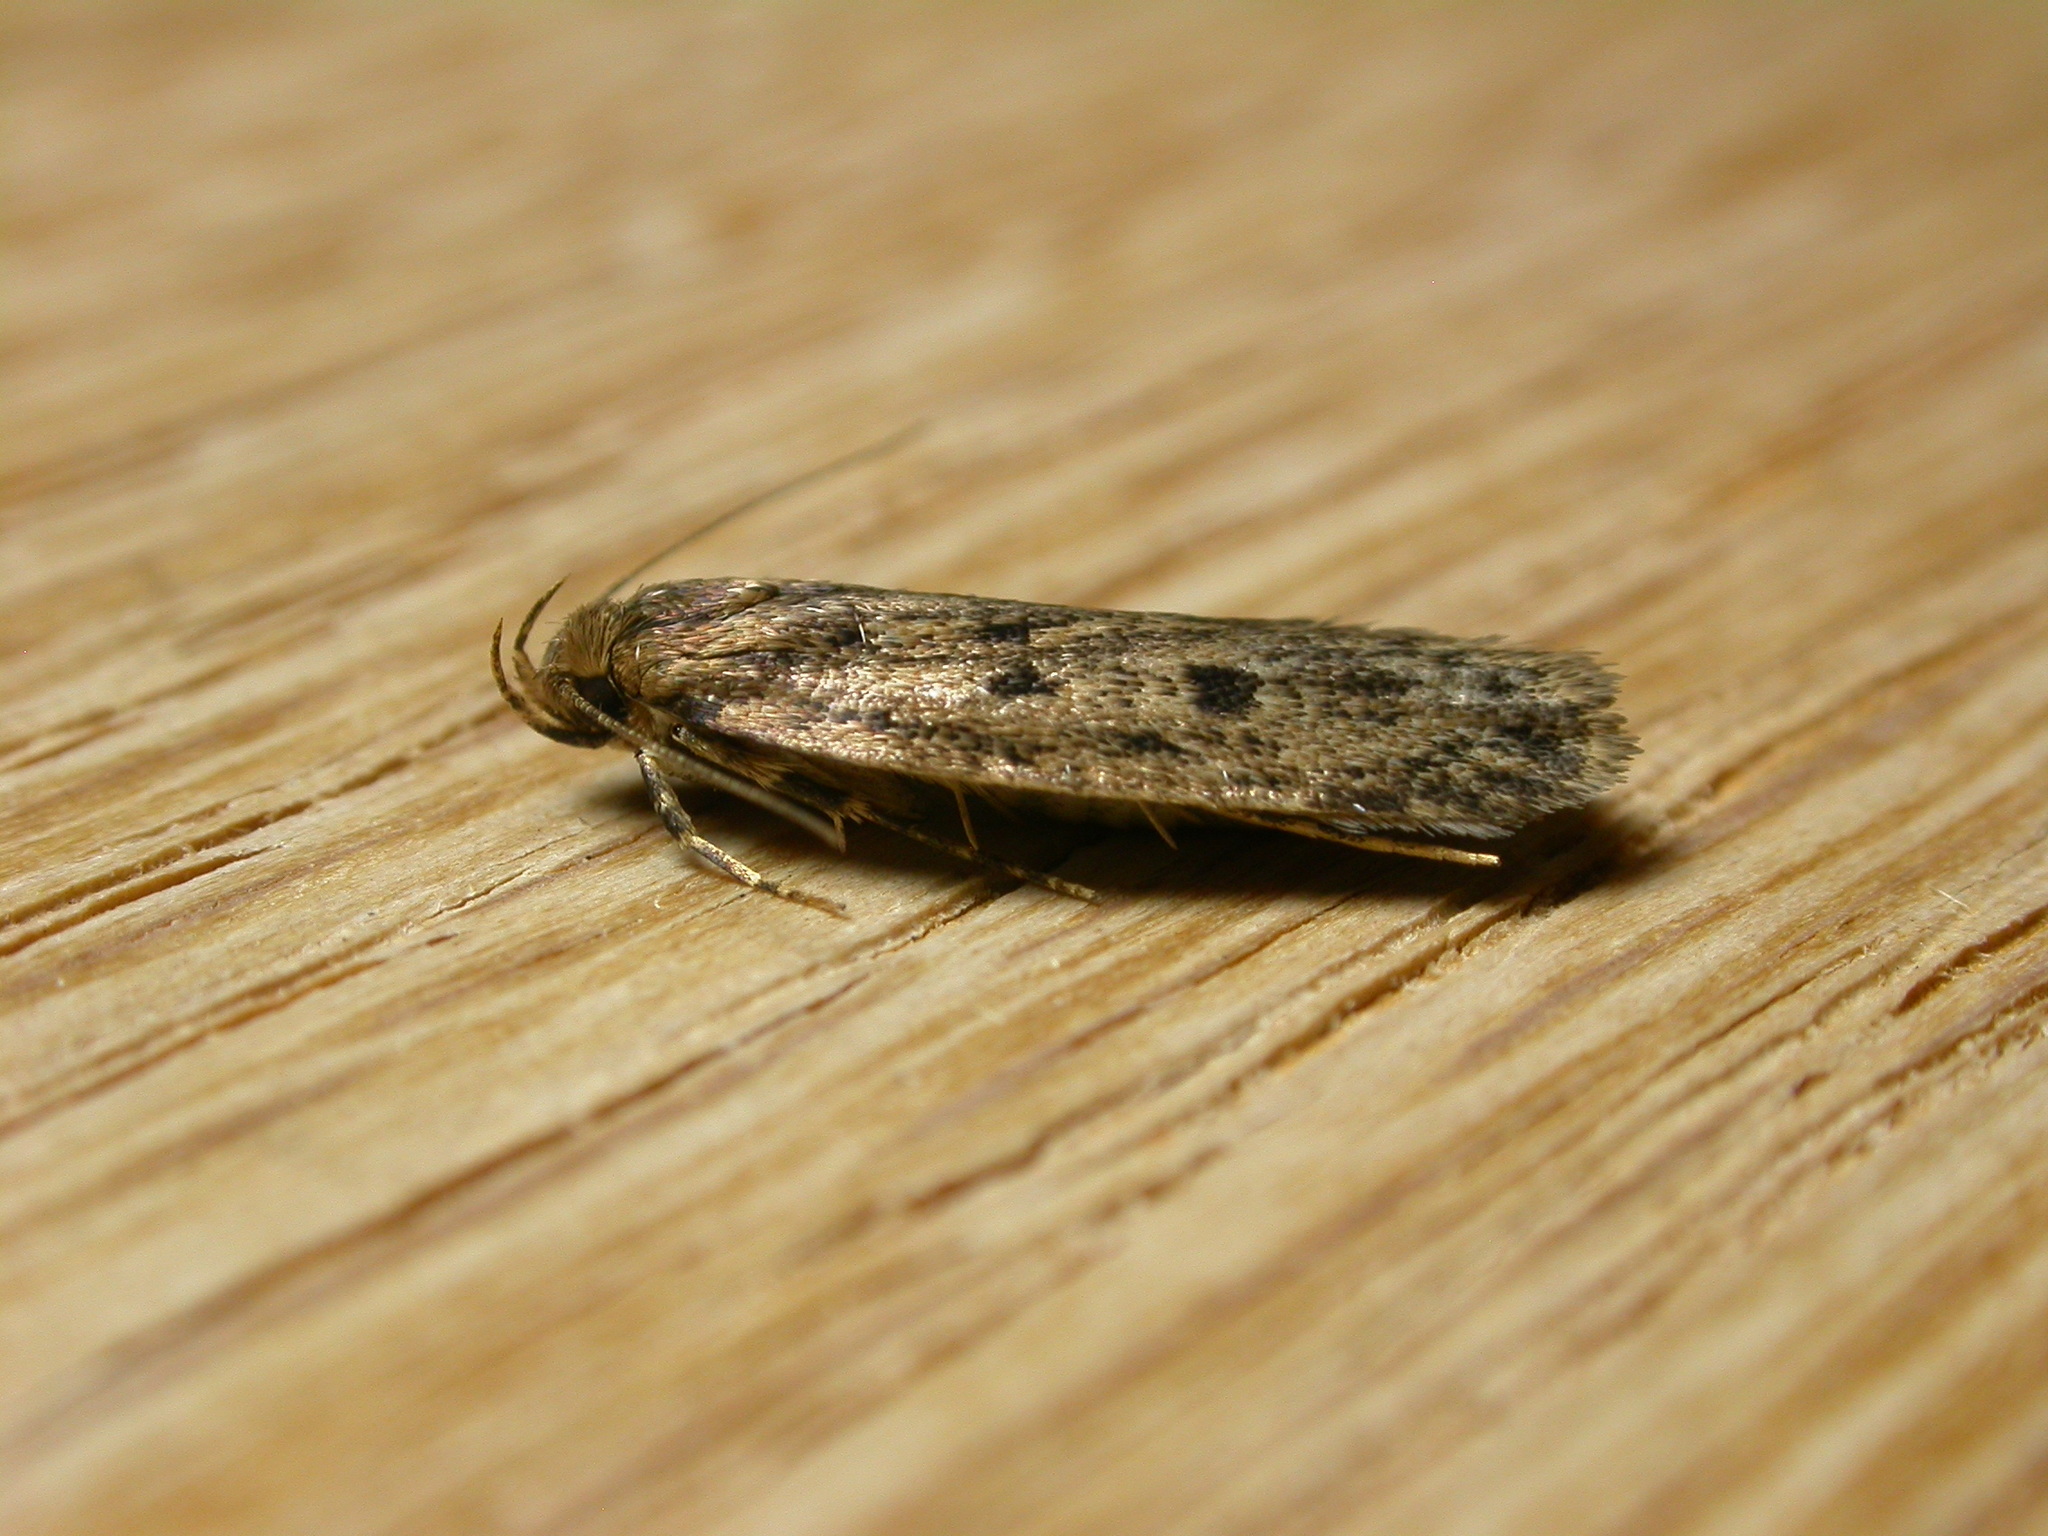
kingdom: Animalia
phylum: Arthropoda
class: Insecta
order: Lepidoptera
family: Oecophoridae
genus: Hofmannophila
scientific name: Hofmannophila pseudospretella
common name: Brown house moth
